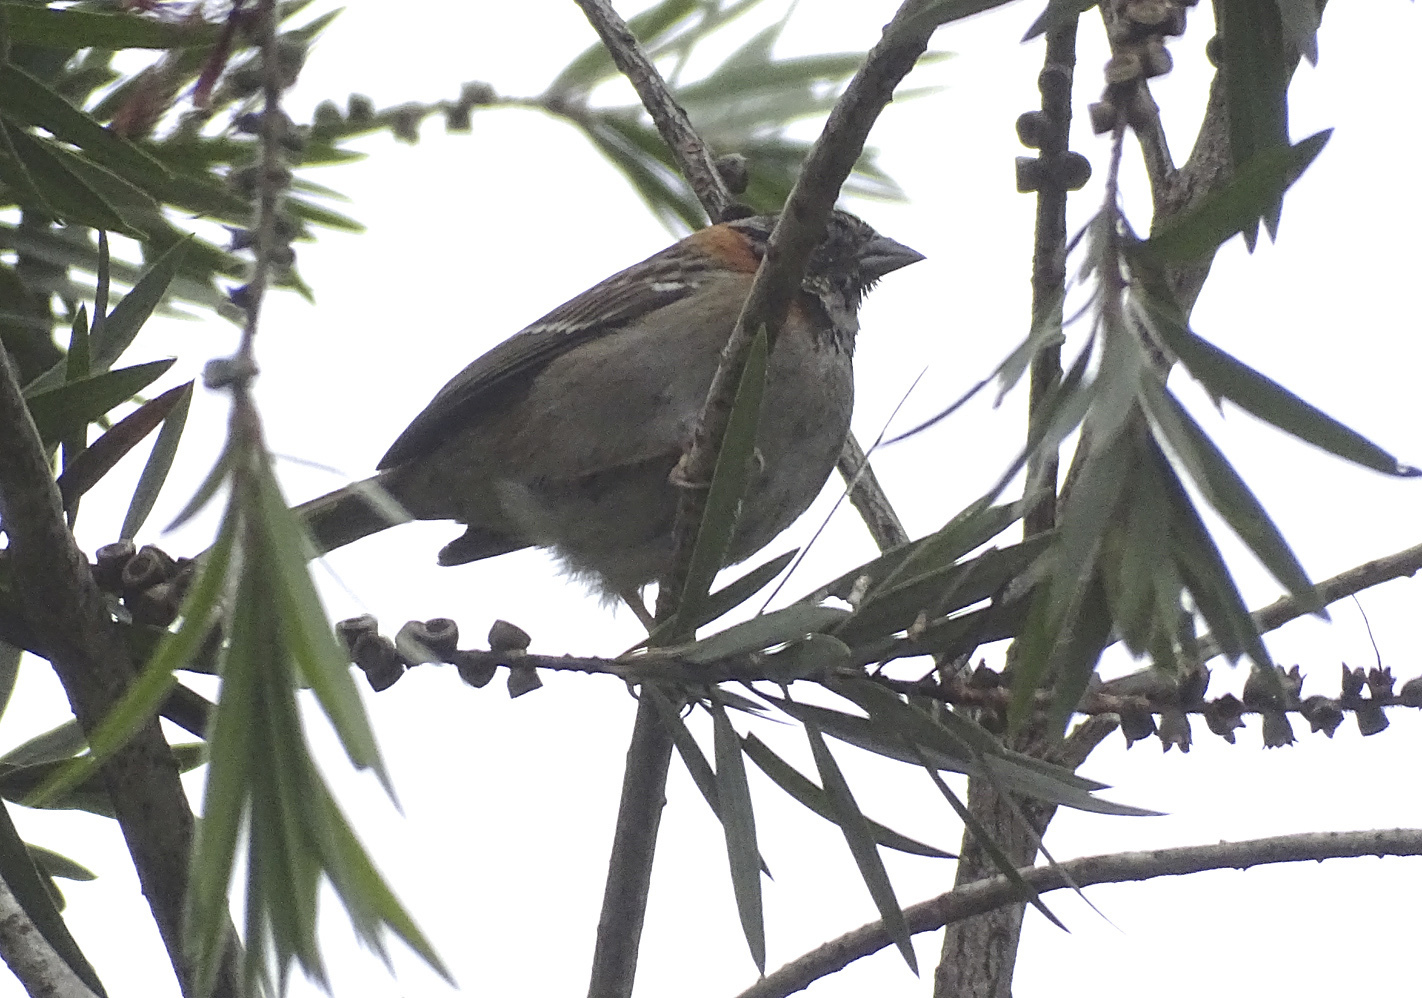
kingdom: Animalia
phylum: Chordata
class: Aves
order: Passeriformes
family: Passerellidae
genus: Zonotrichia
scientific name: Zonotrichia capensis
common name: Rufous-collared sparrow
